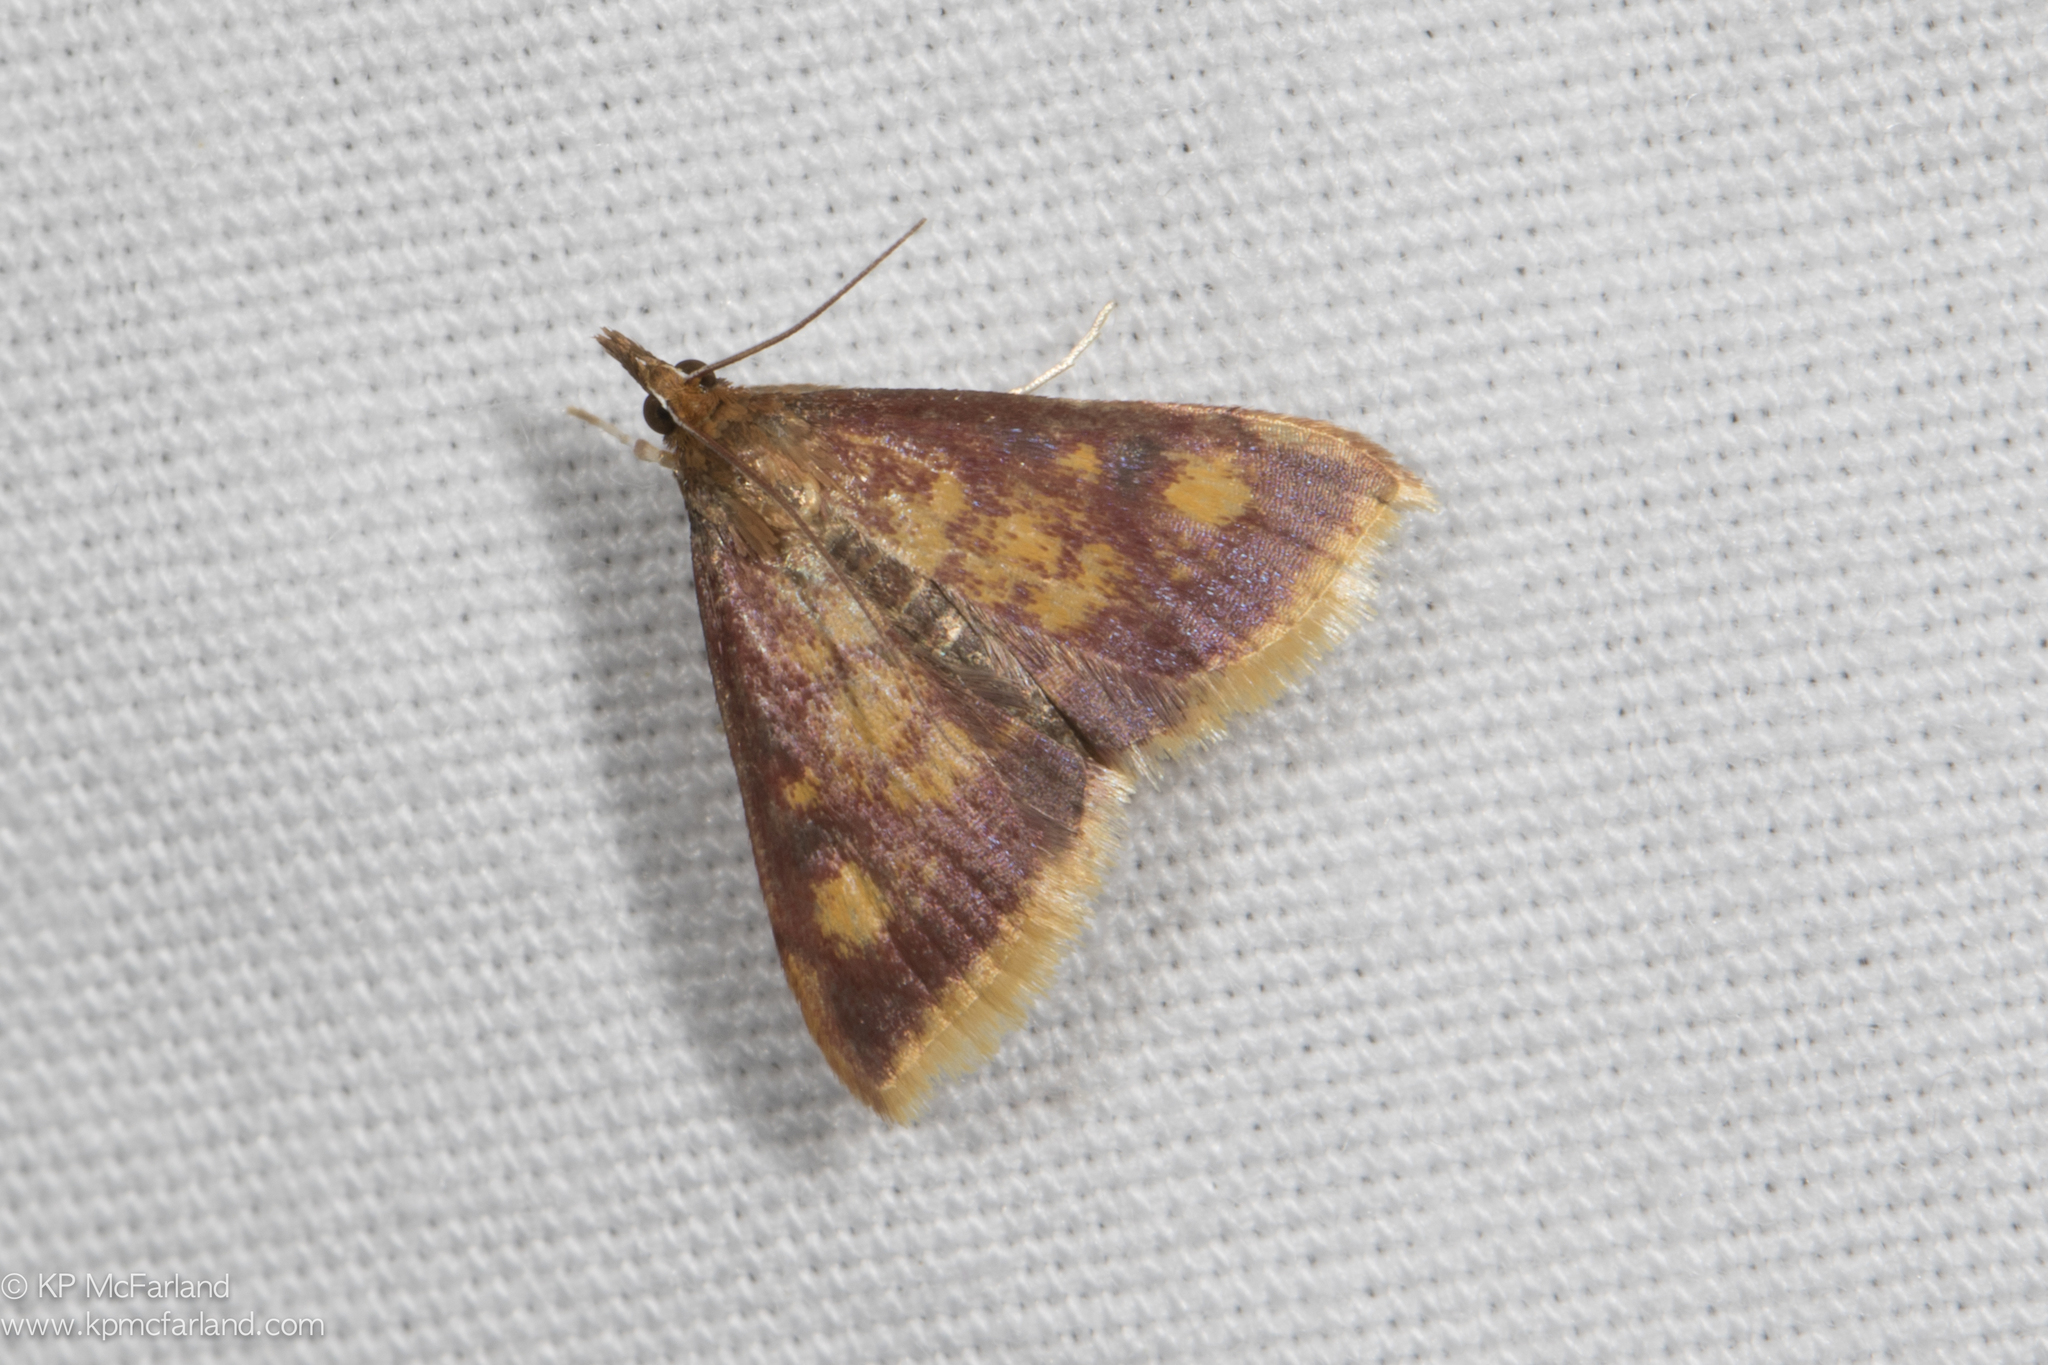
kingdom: Animalia
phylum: Arthropoda
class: Insecta
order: Lepidoptera
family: Crambidae
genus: Pyrausta
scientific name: Pyrausta acrionalis
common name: Mint-loving pyrausta moth
